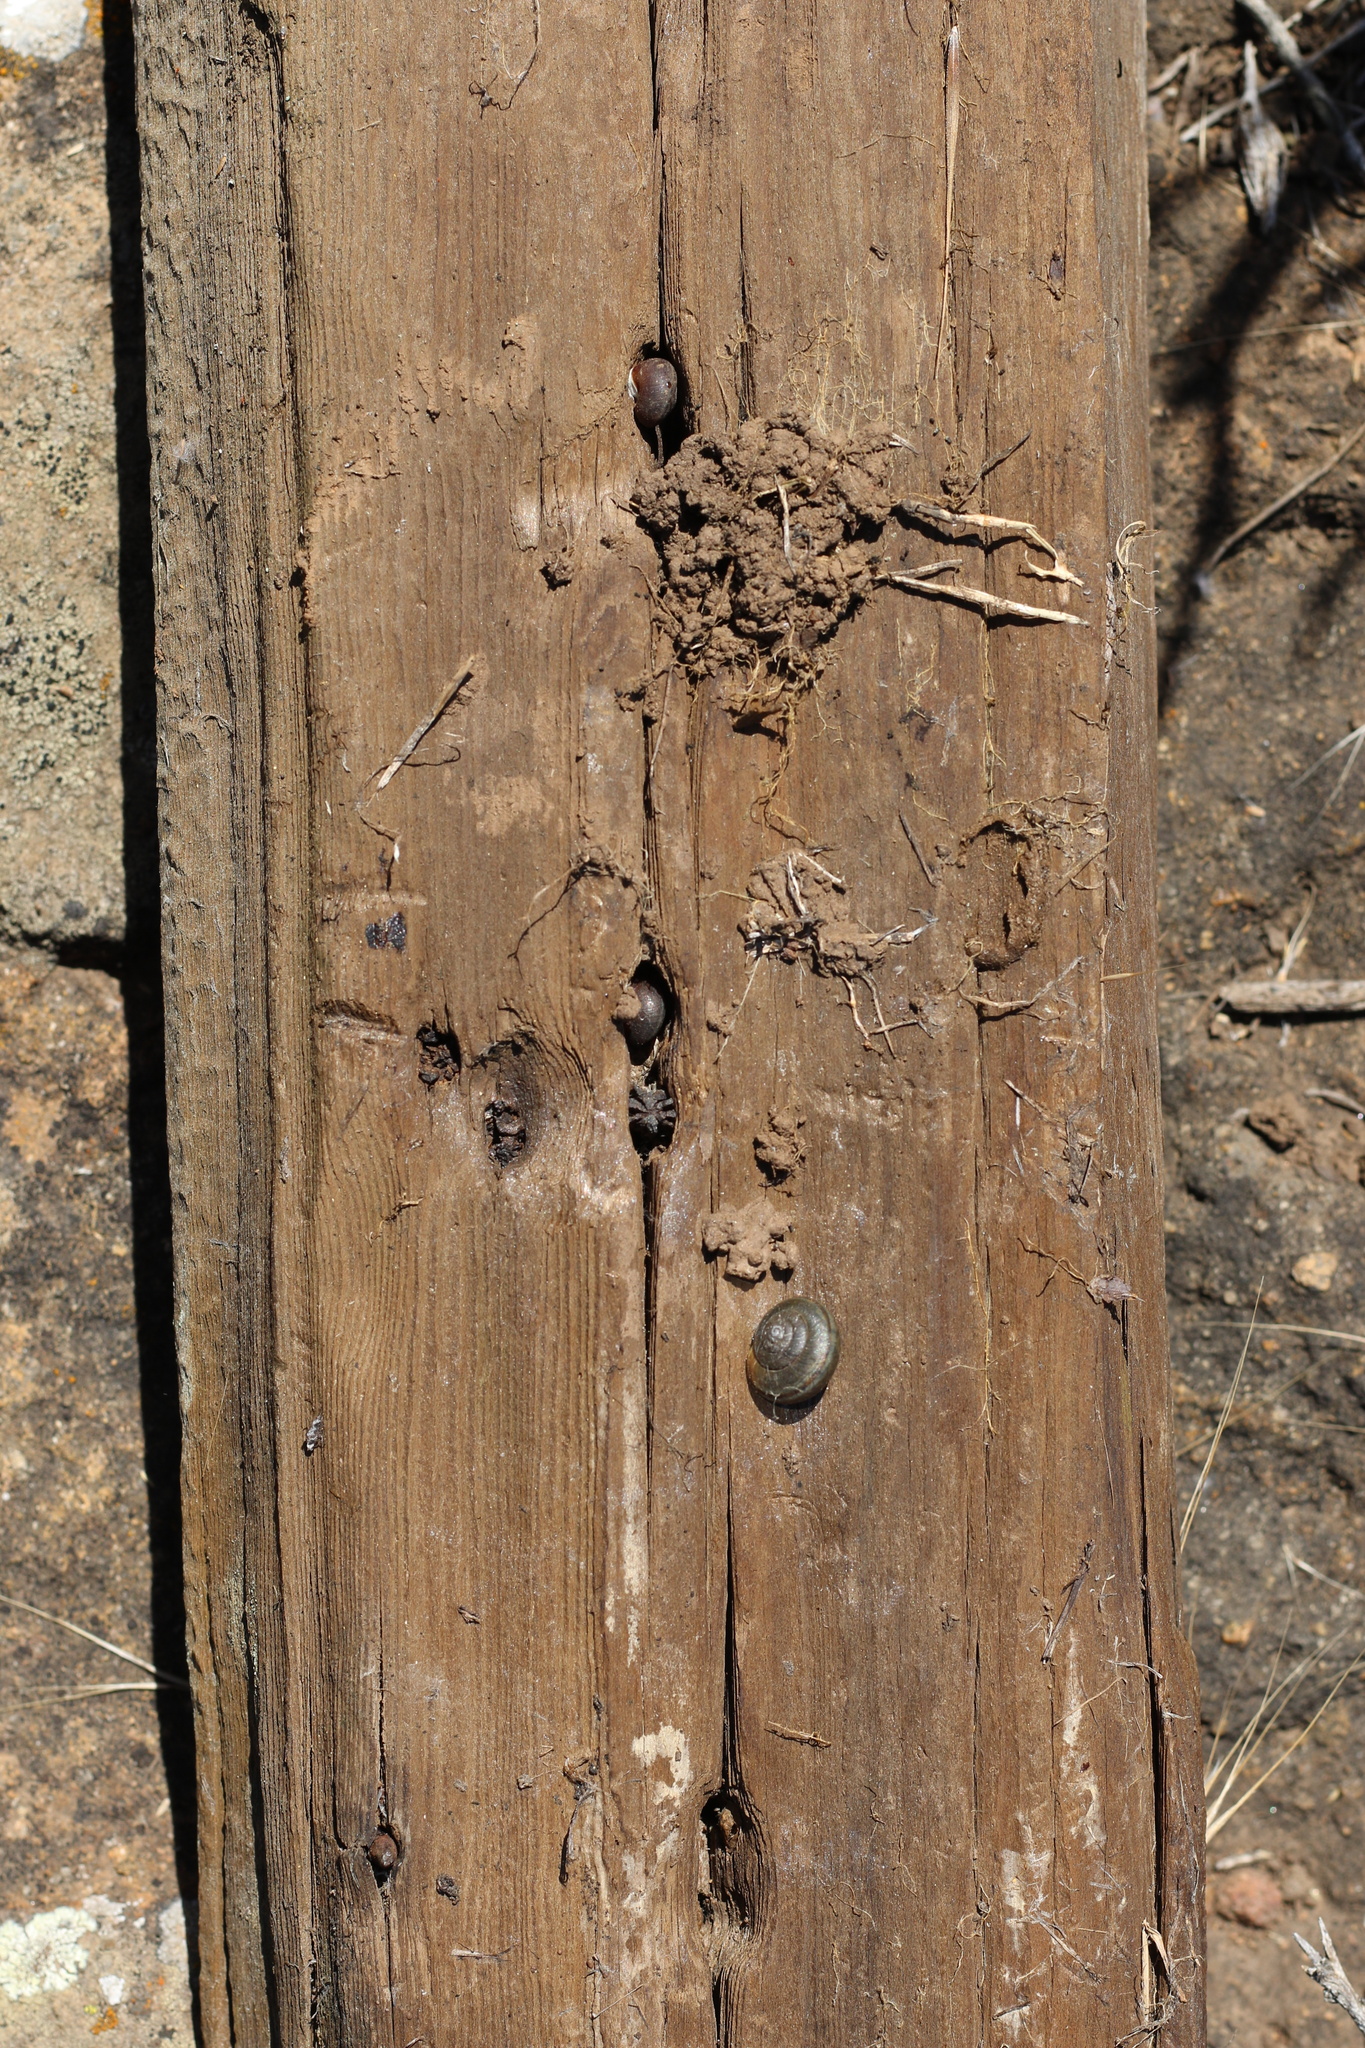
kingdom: Animalia
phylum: Mollusca
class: Gastropoda
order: Stylommatophora
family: Xanthonychidae
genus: Helminthoglypta
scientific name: Helminthoglypta sanctaecrucis
